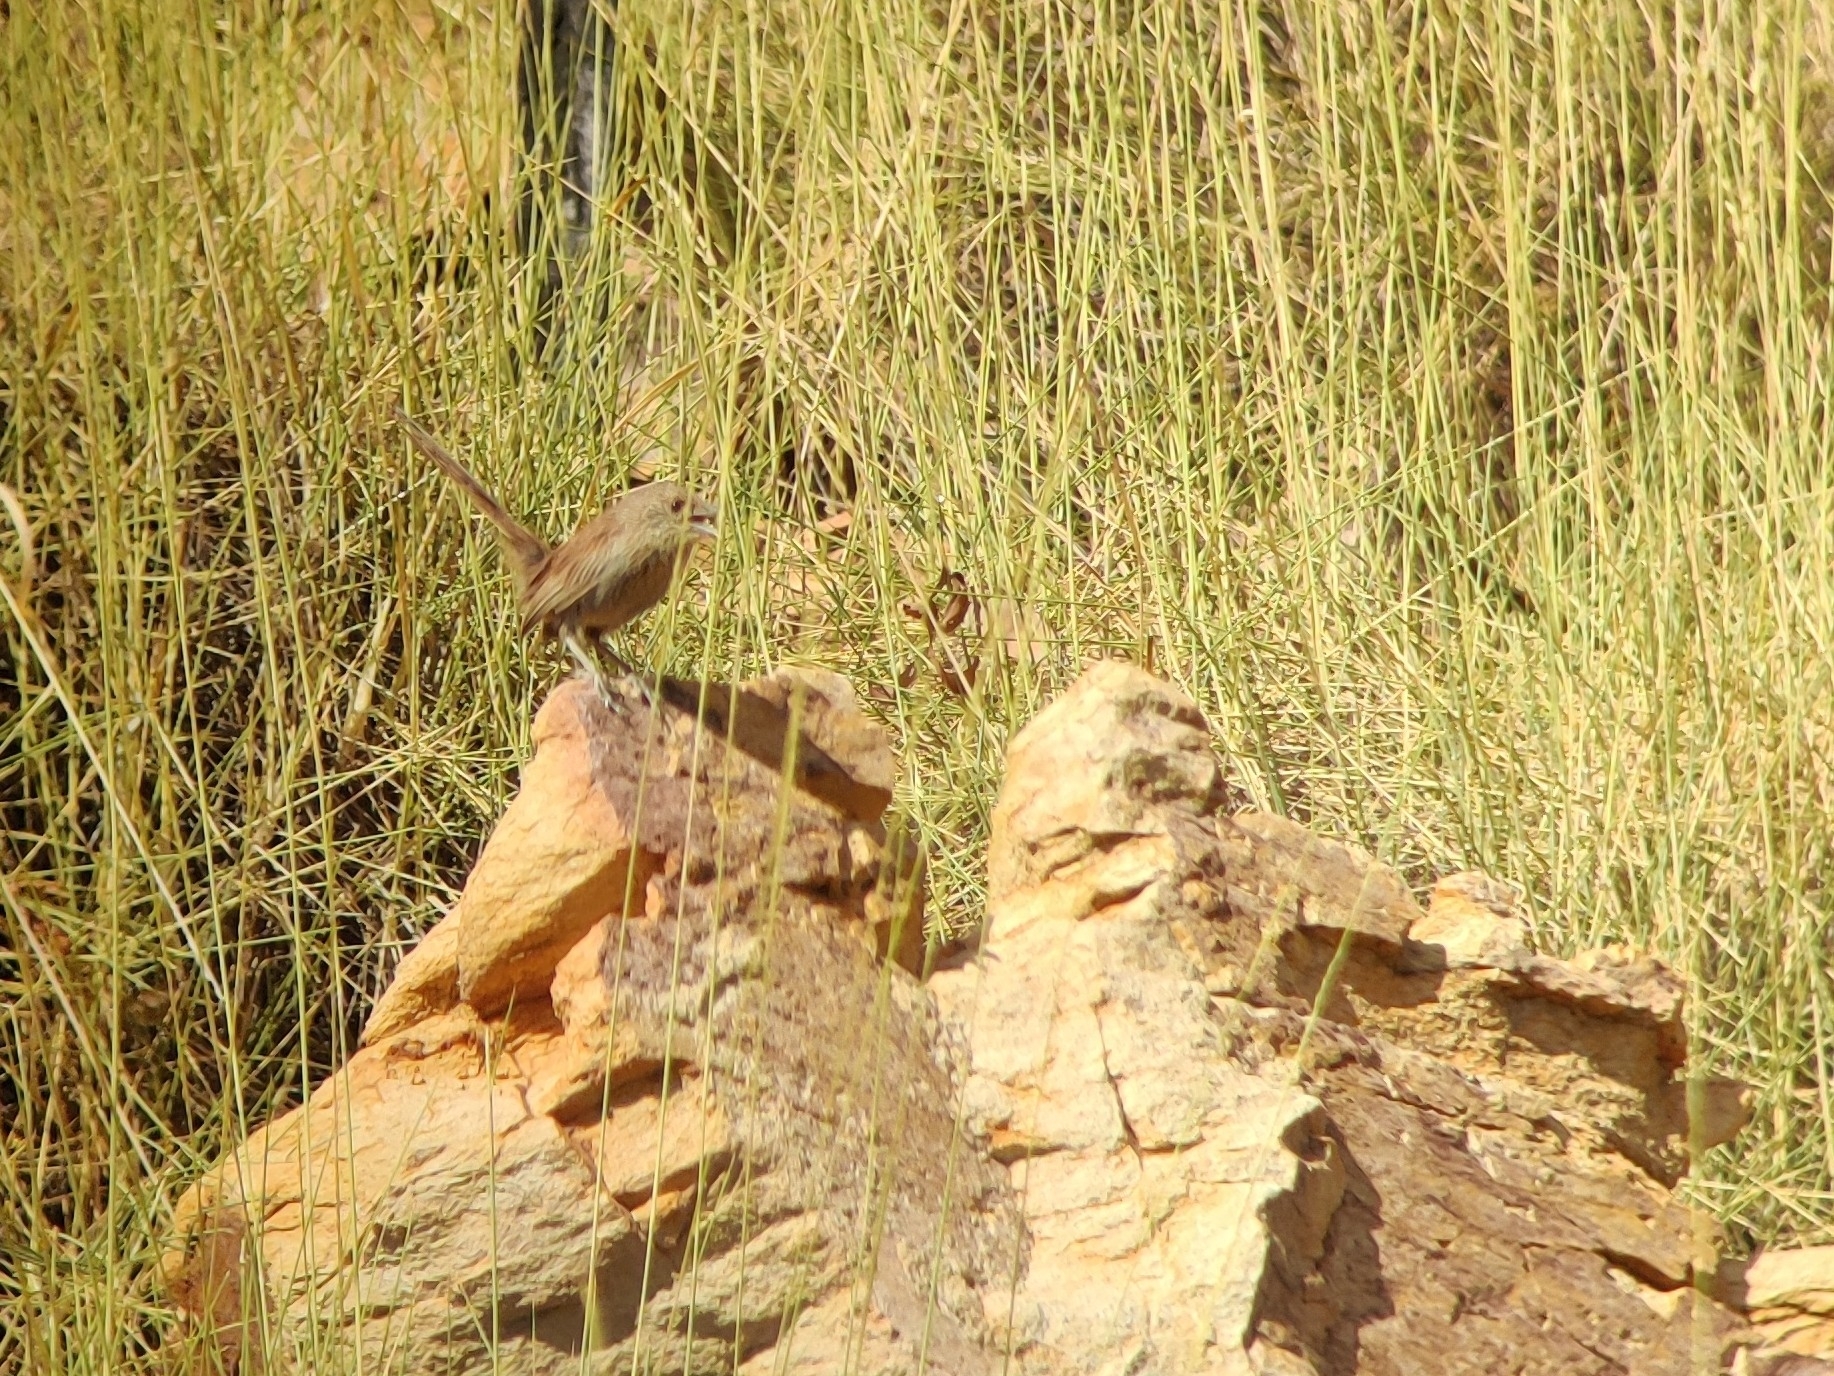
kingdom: Animalia
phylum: Chordata
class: Aves
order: Passeriformes
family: Maluridae
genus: Amytornis
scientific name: Amytornis ballarae
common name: Kalkadoon grasswren
